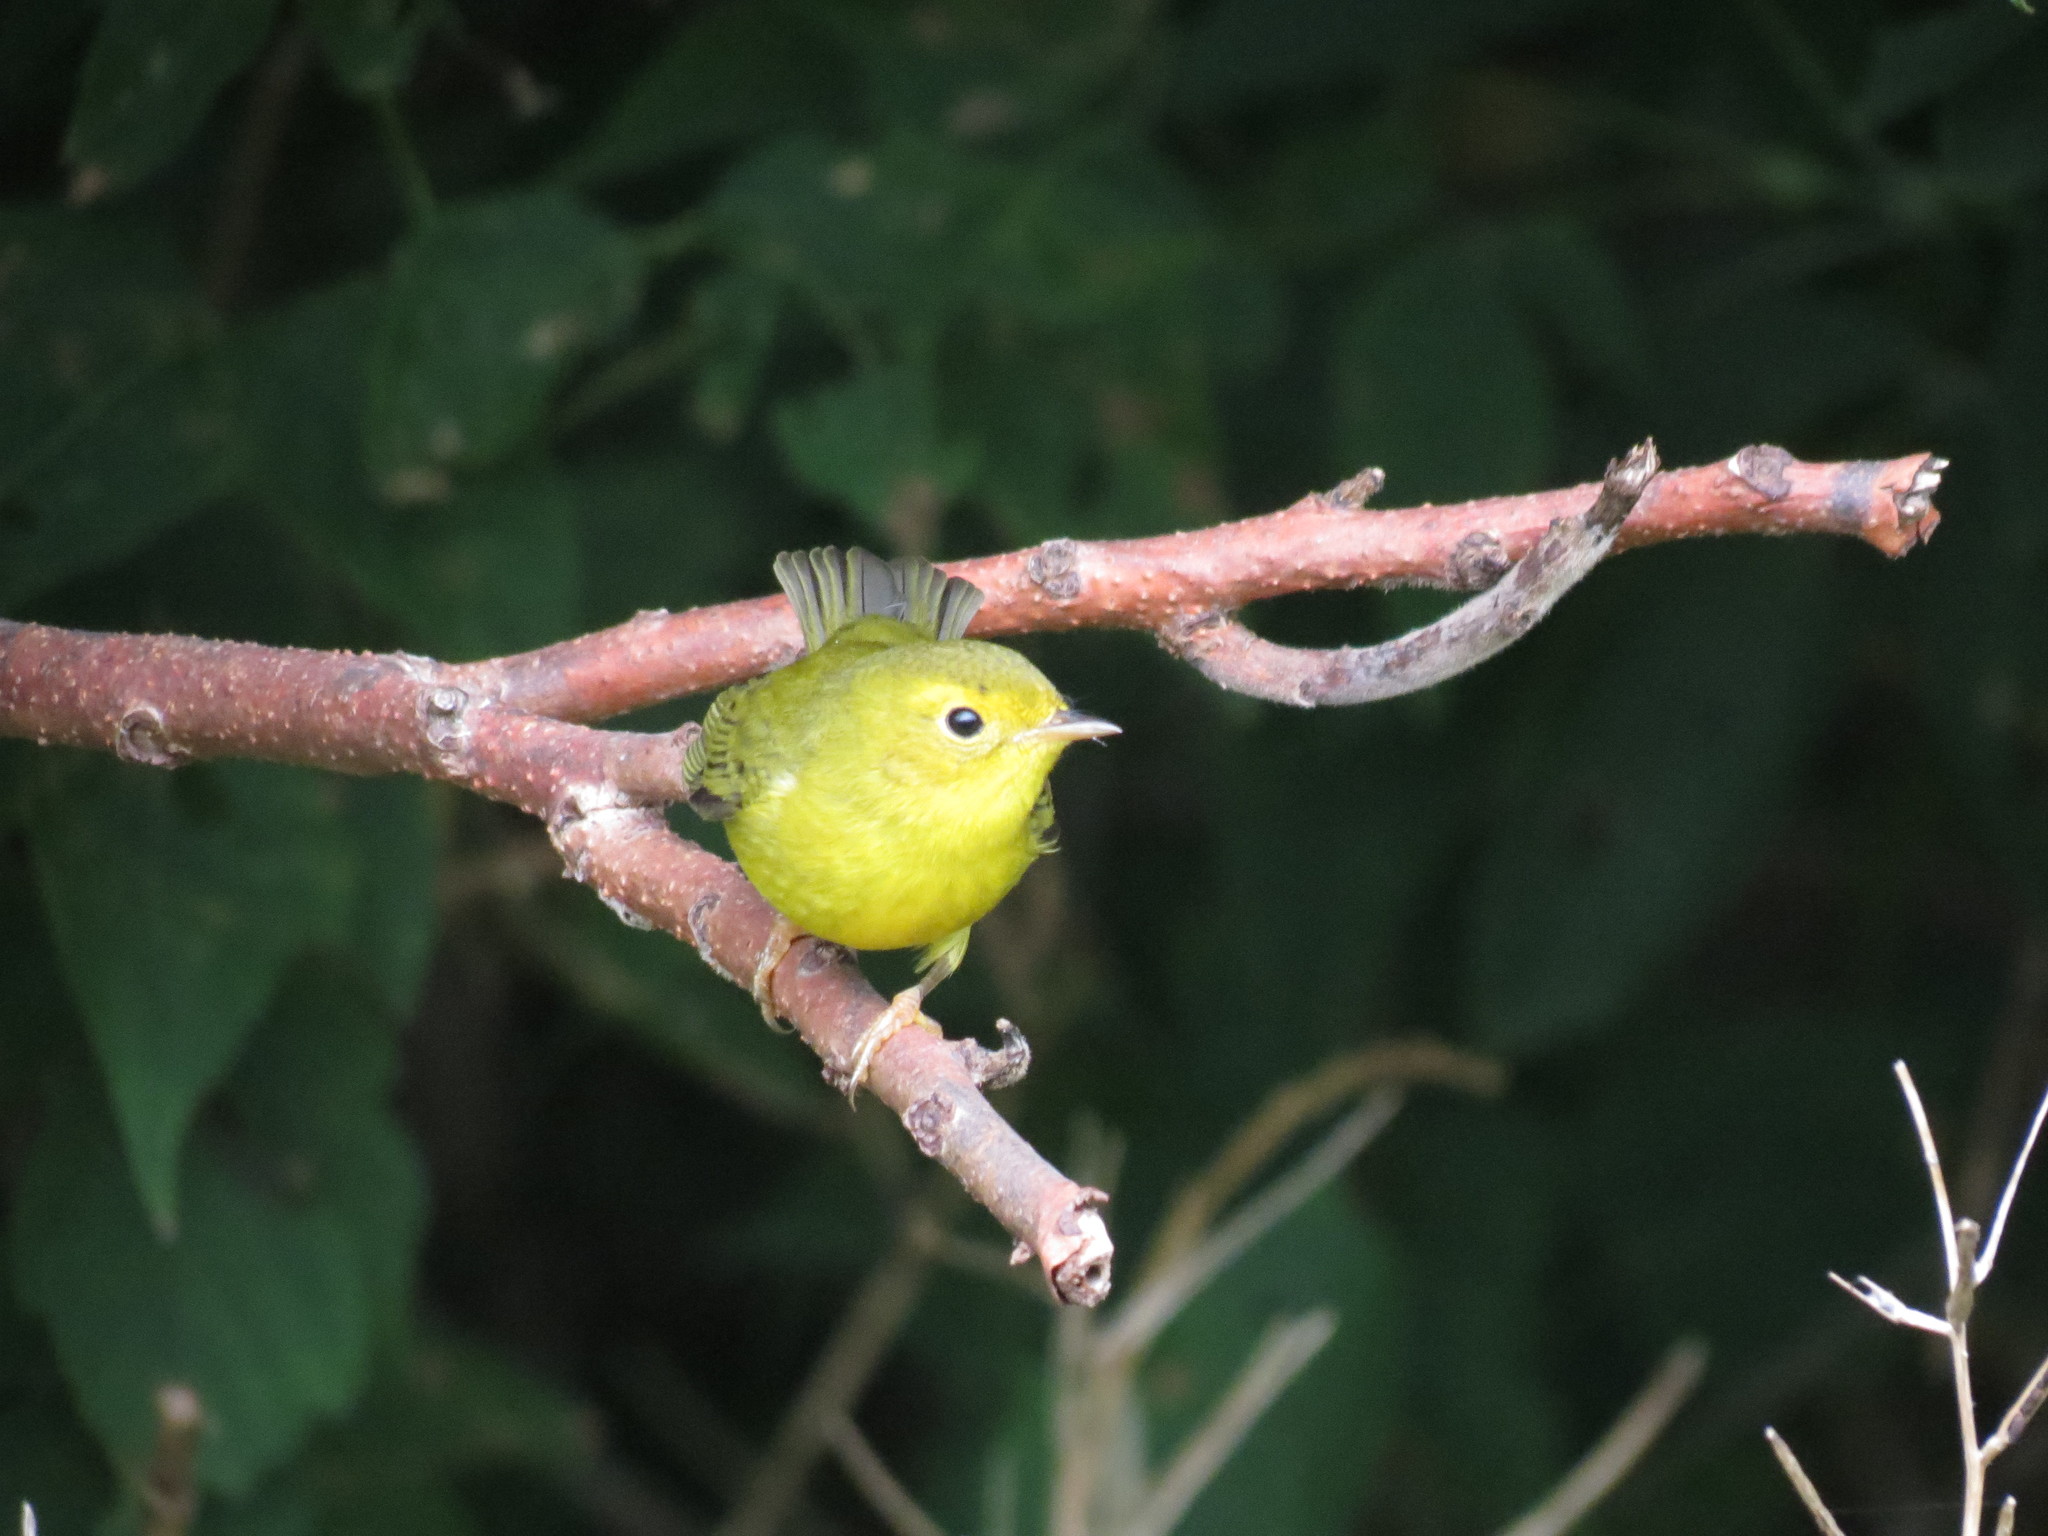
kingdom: Animalia
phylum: Chordata
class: Aves
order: Passeriformes
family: Parulidae
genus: Cardellina
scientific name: Cardellina pusilla
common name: Wilson's warbler
